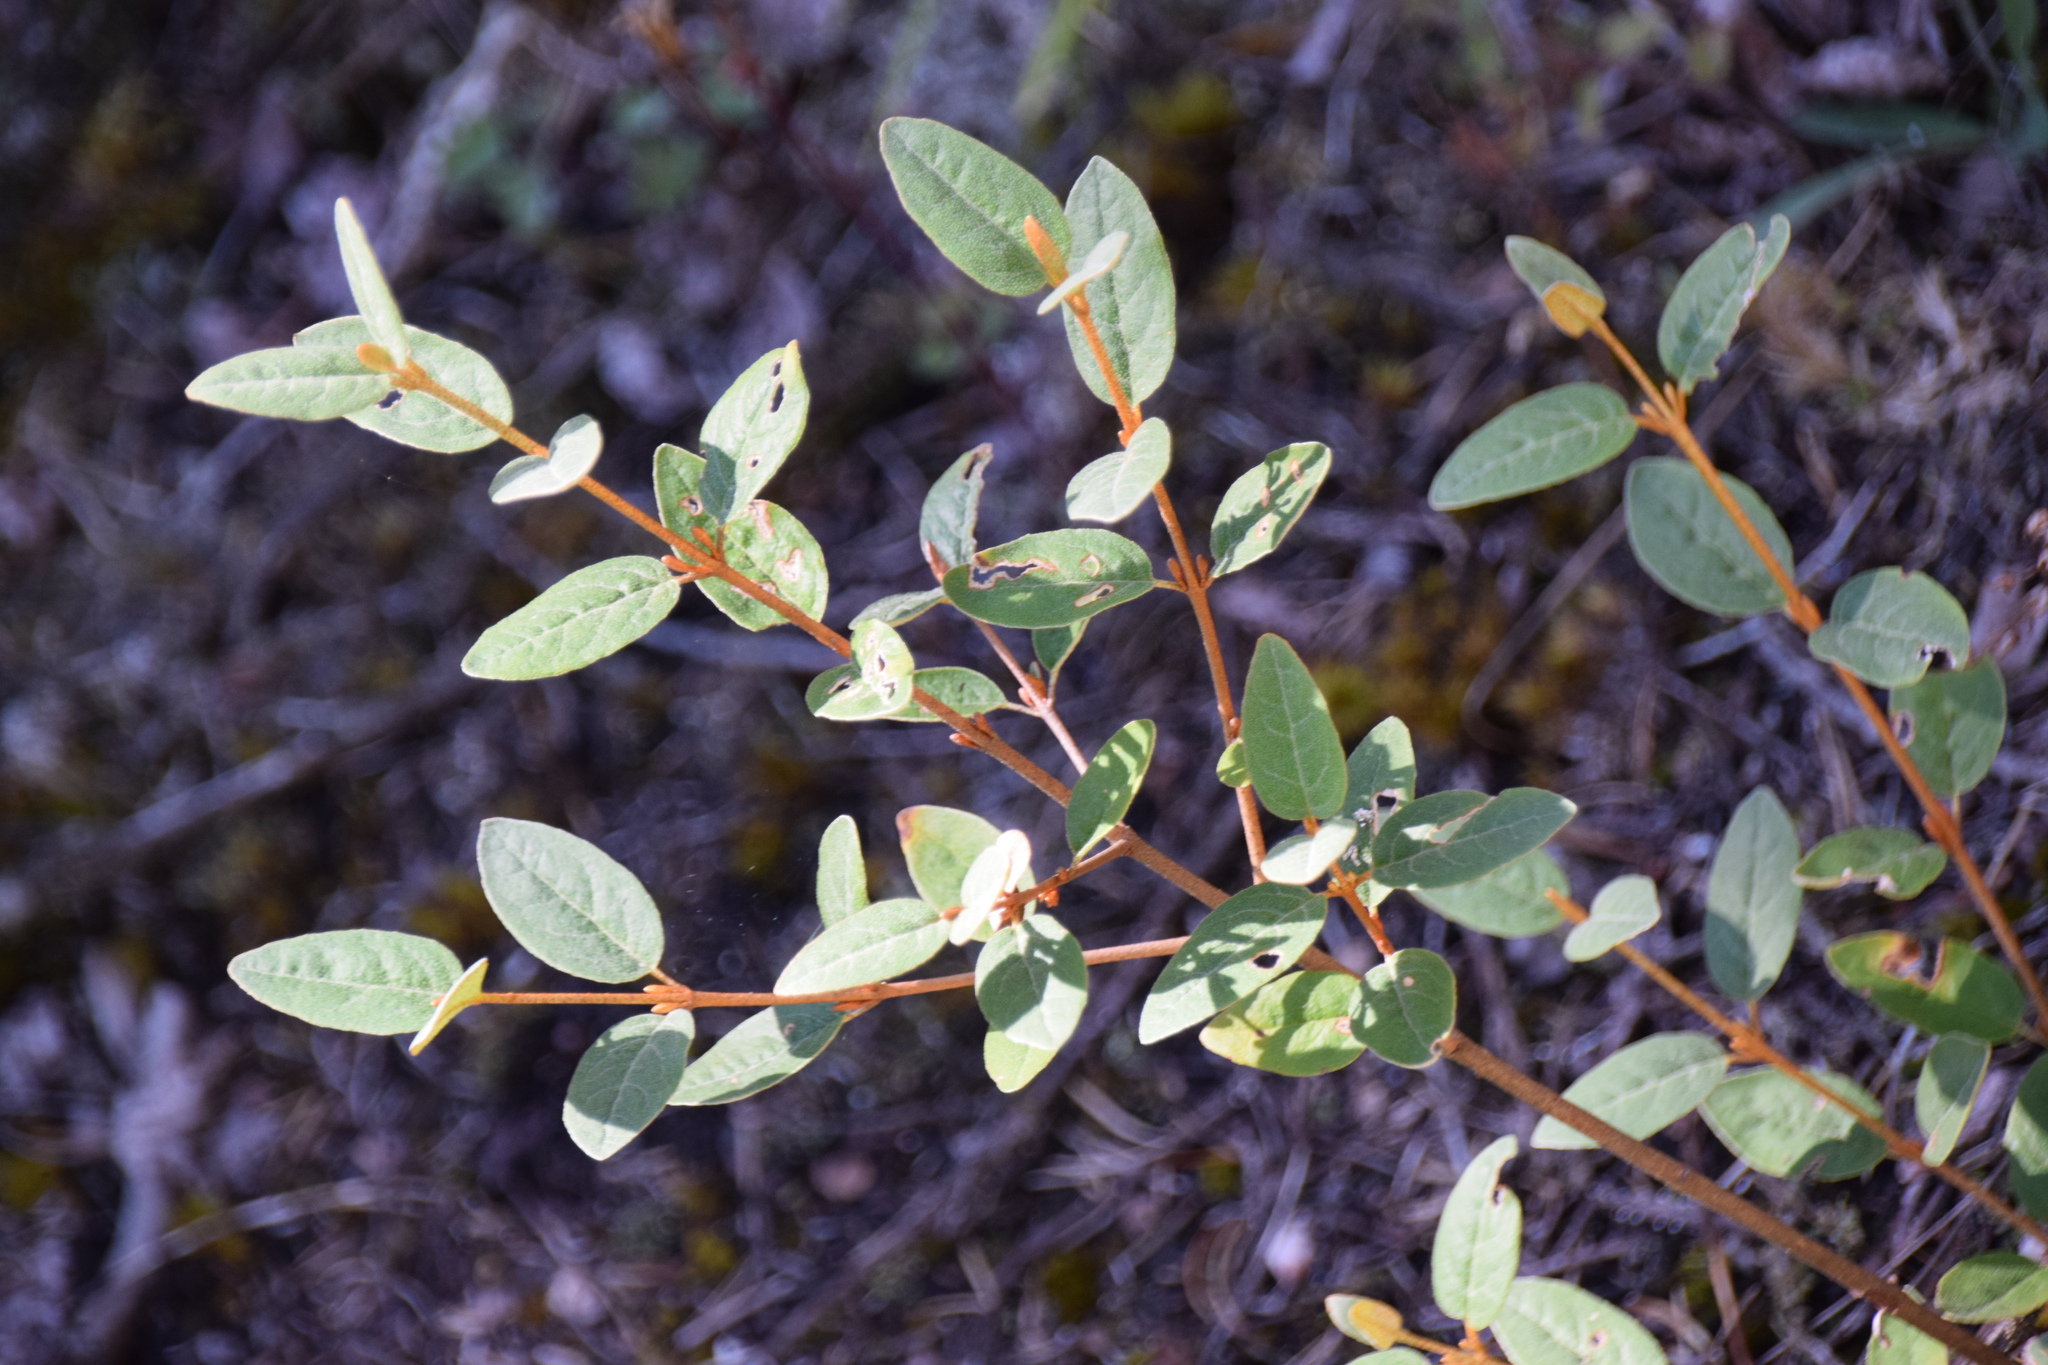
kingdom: Plantae
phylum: Tracheophyta
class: Magnoliopsida
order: Rosales
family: Elaeagnaceae
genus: Shepherdia
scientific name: Shepherdia canadensis
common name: Soapberry
